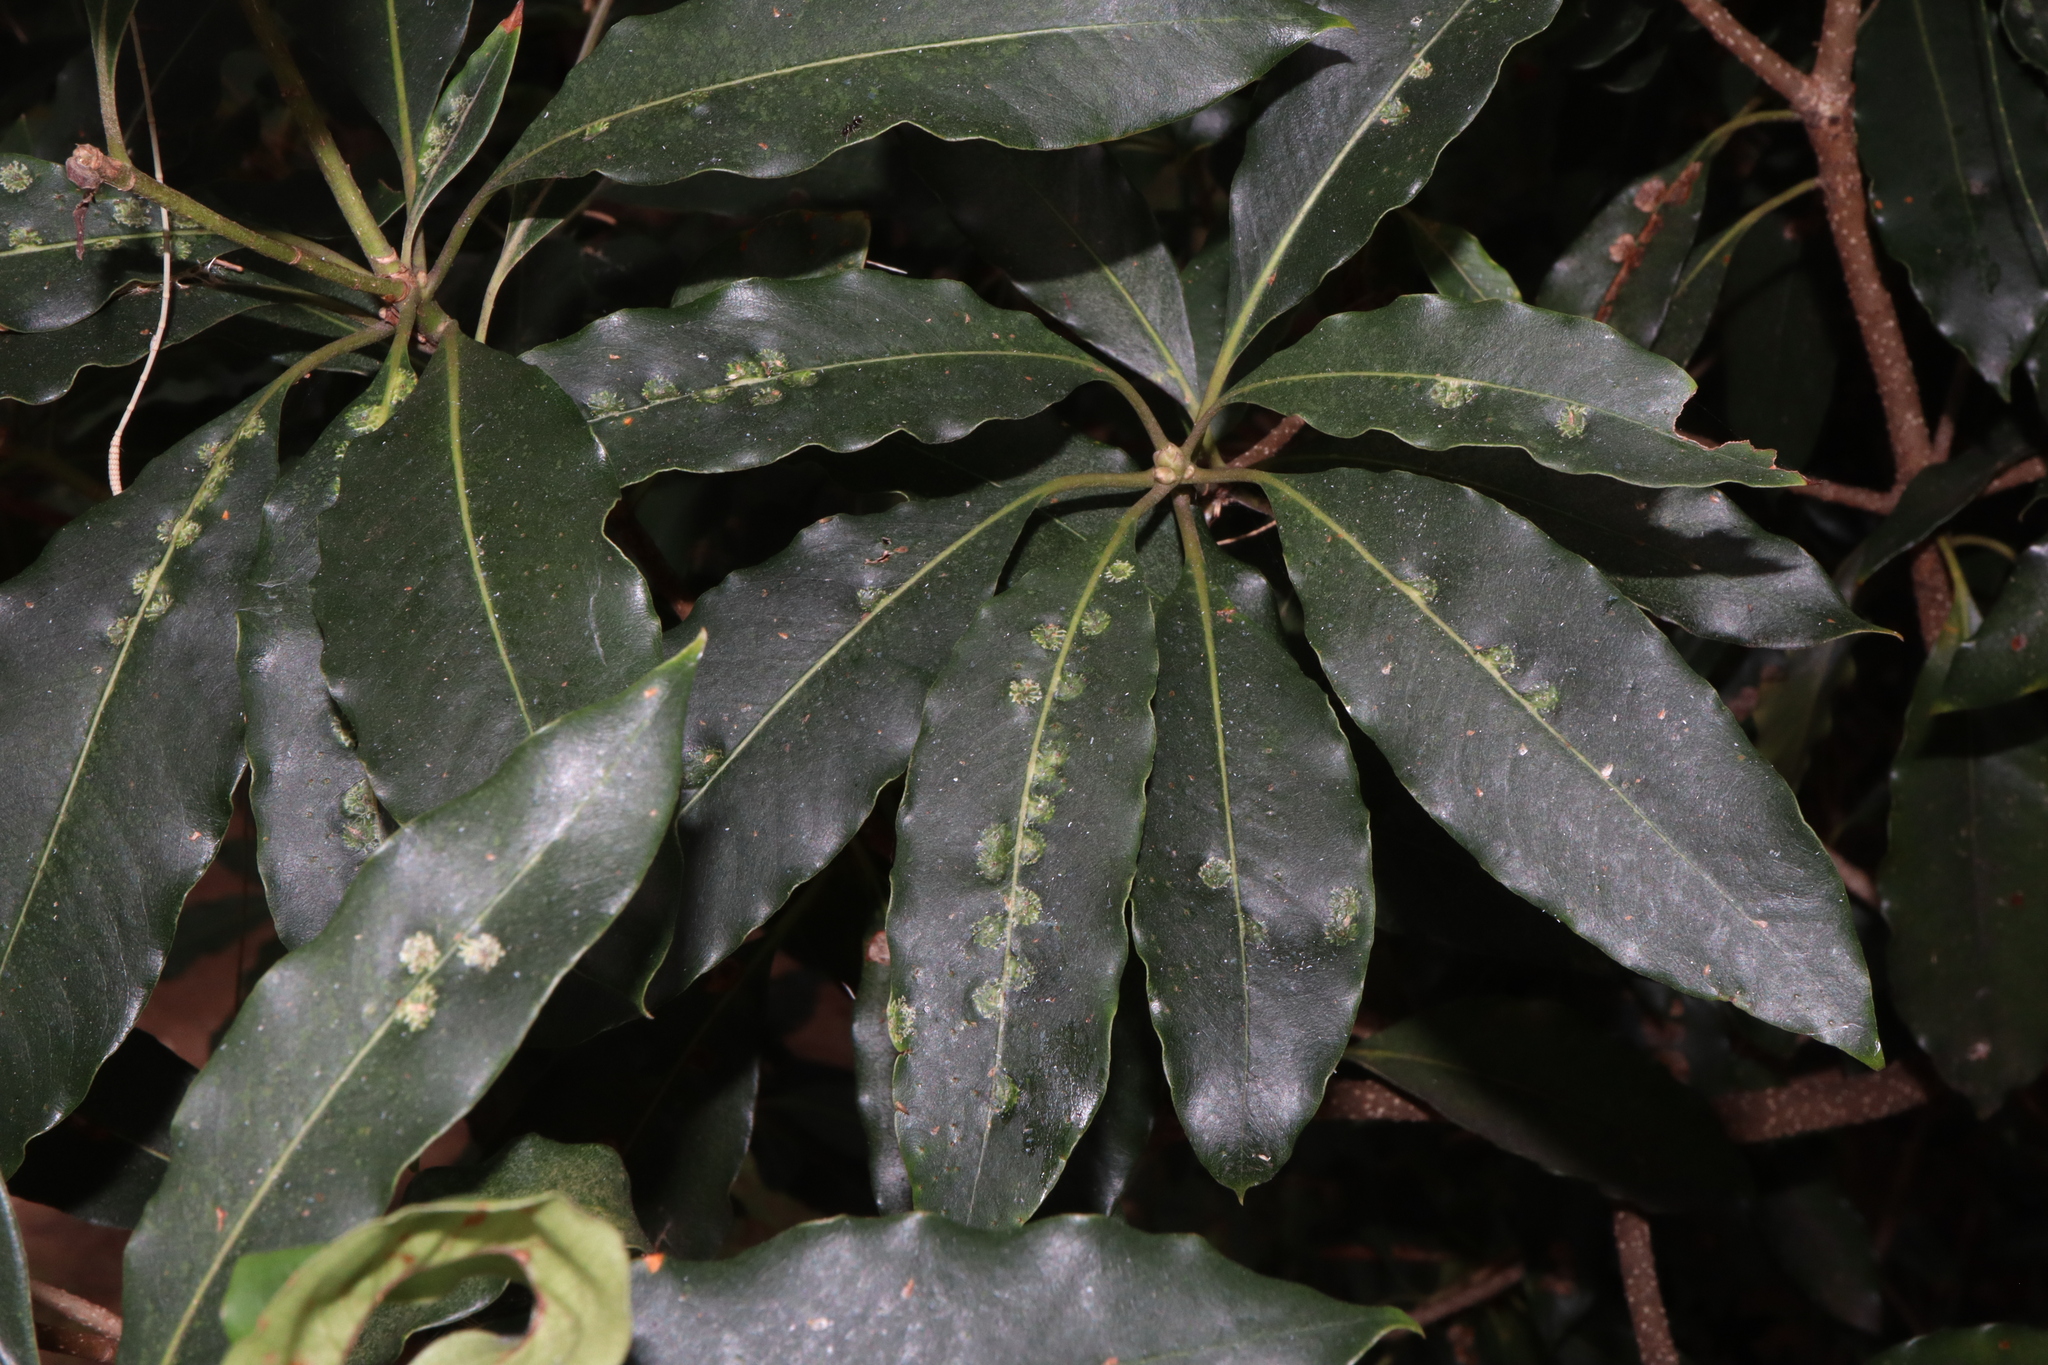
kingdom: Animalia
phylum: Arthropoda
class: Insecta
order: Diptera
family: Agromyzidae
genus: Phytoliriomyza
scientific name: Phytoliriomyza pittosporophylli
